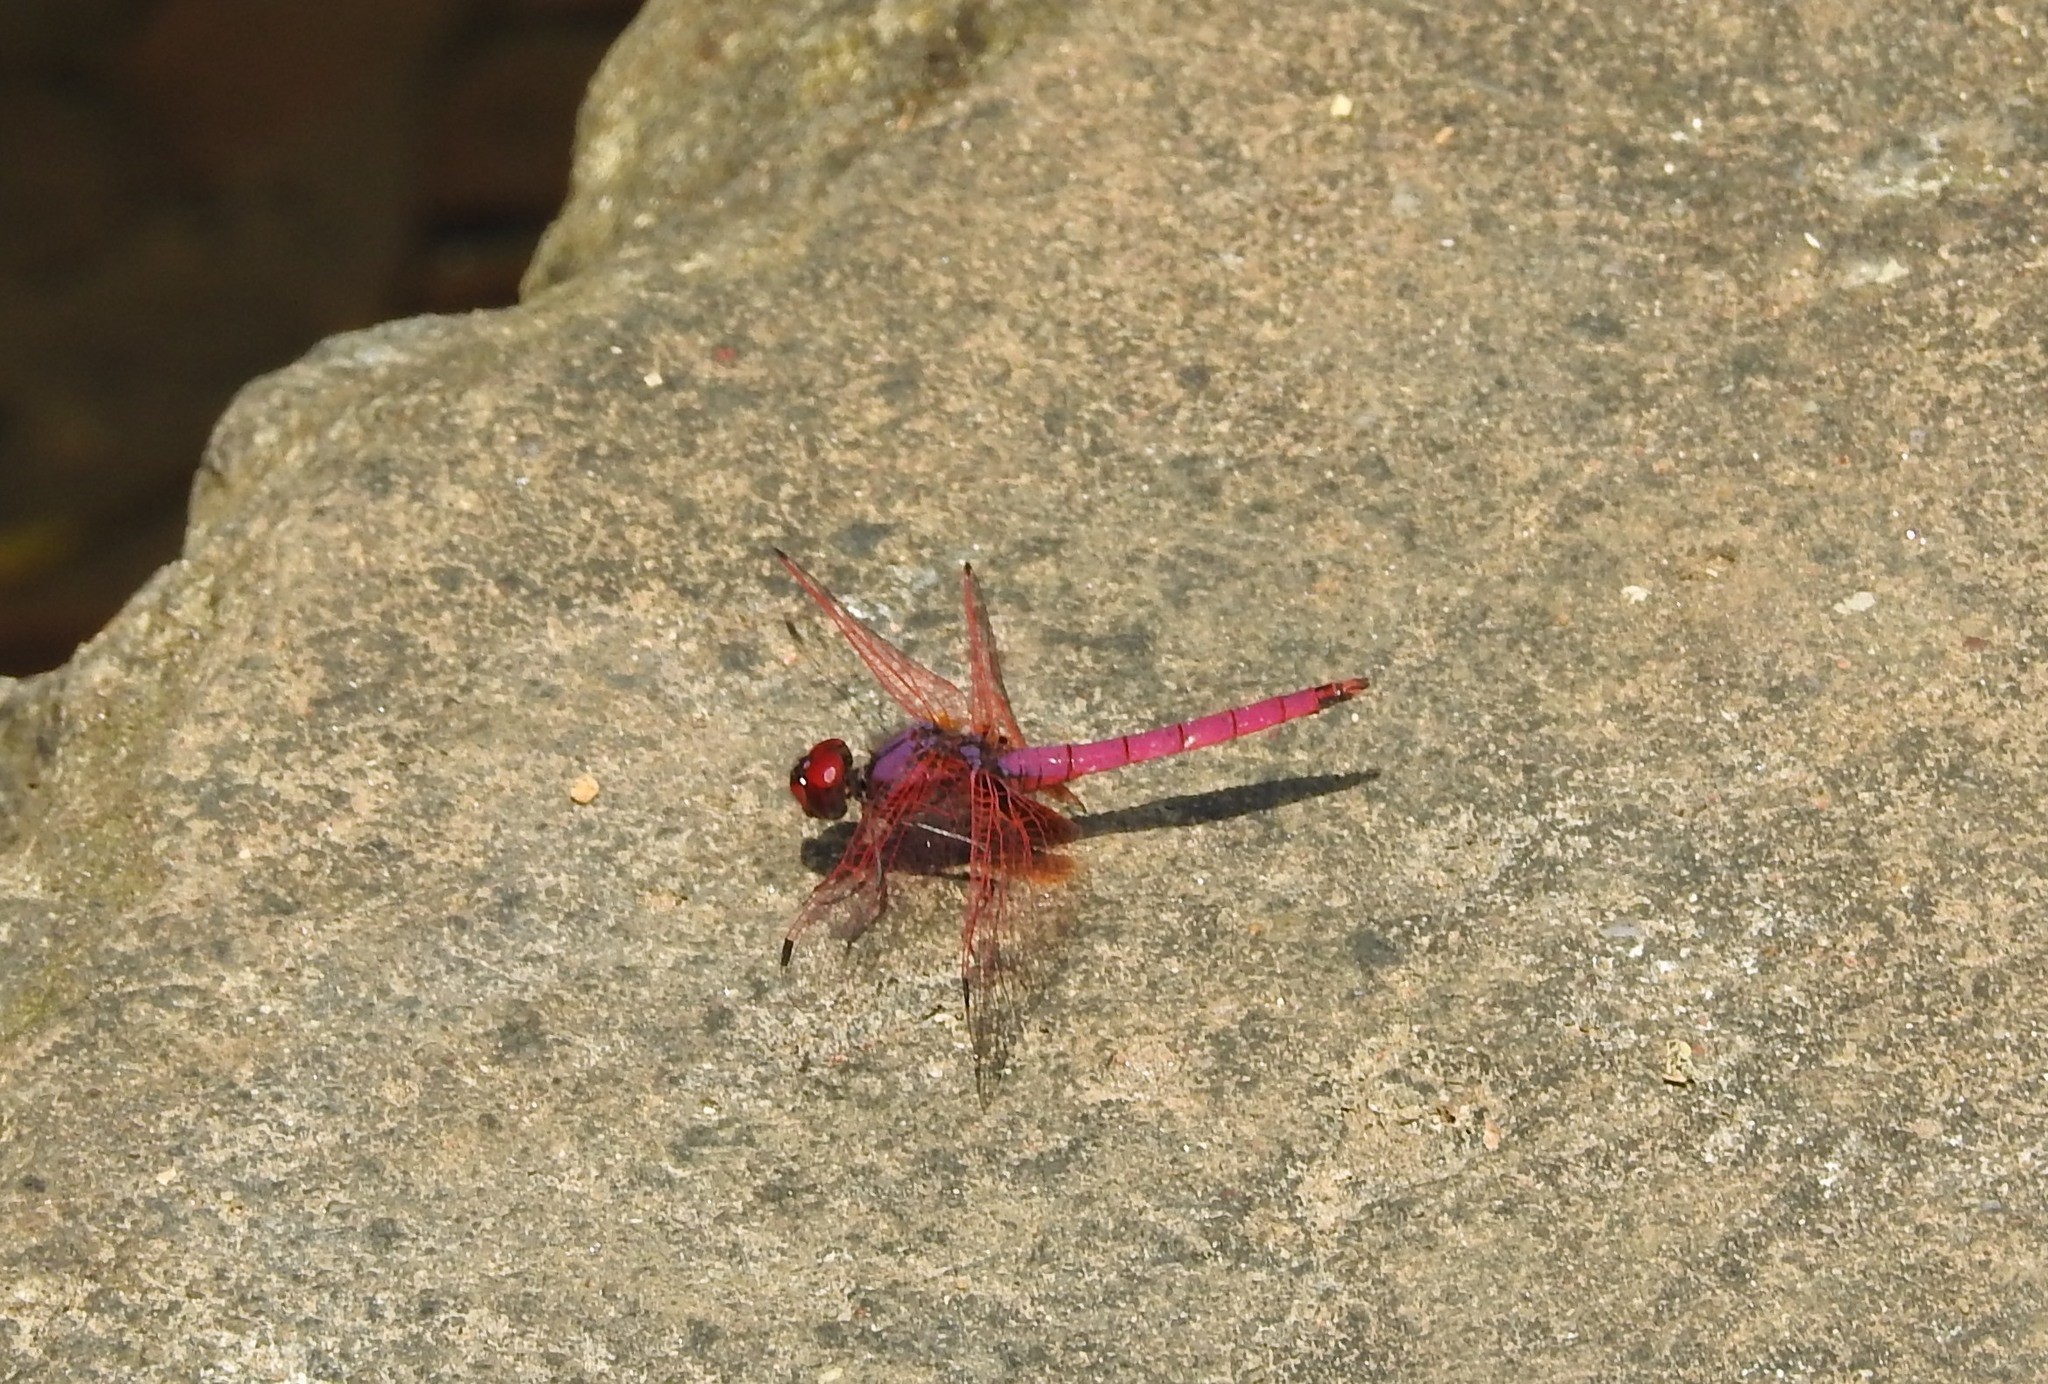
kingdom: Animalia
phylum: Arthropoda
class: Insecta
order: Odonata
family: Libellulidae
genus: Trithemis
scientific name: Trithemis aurora
